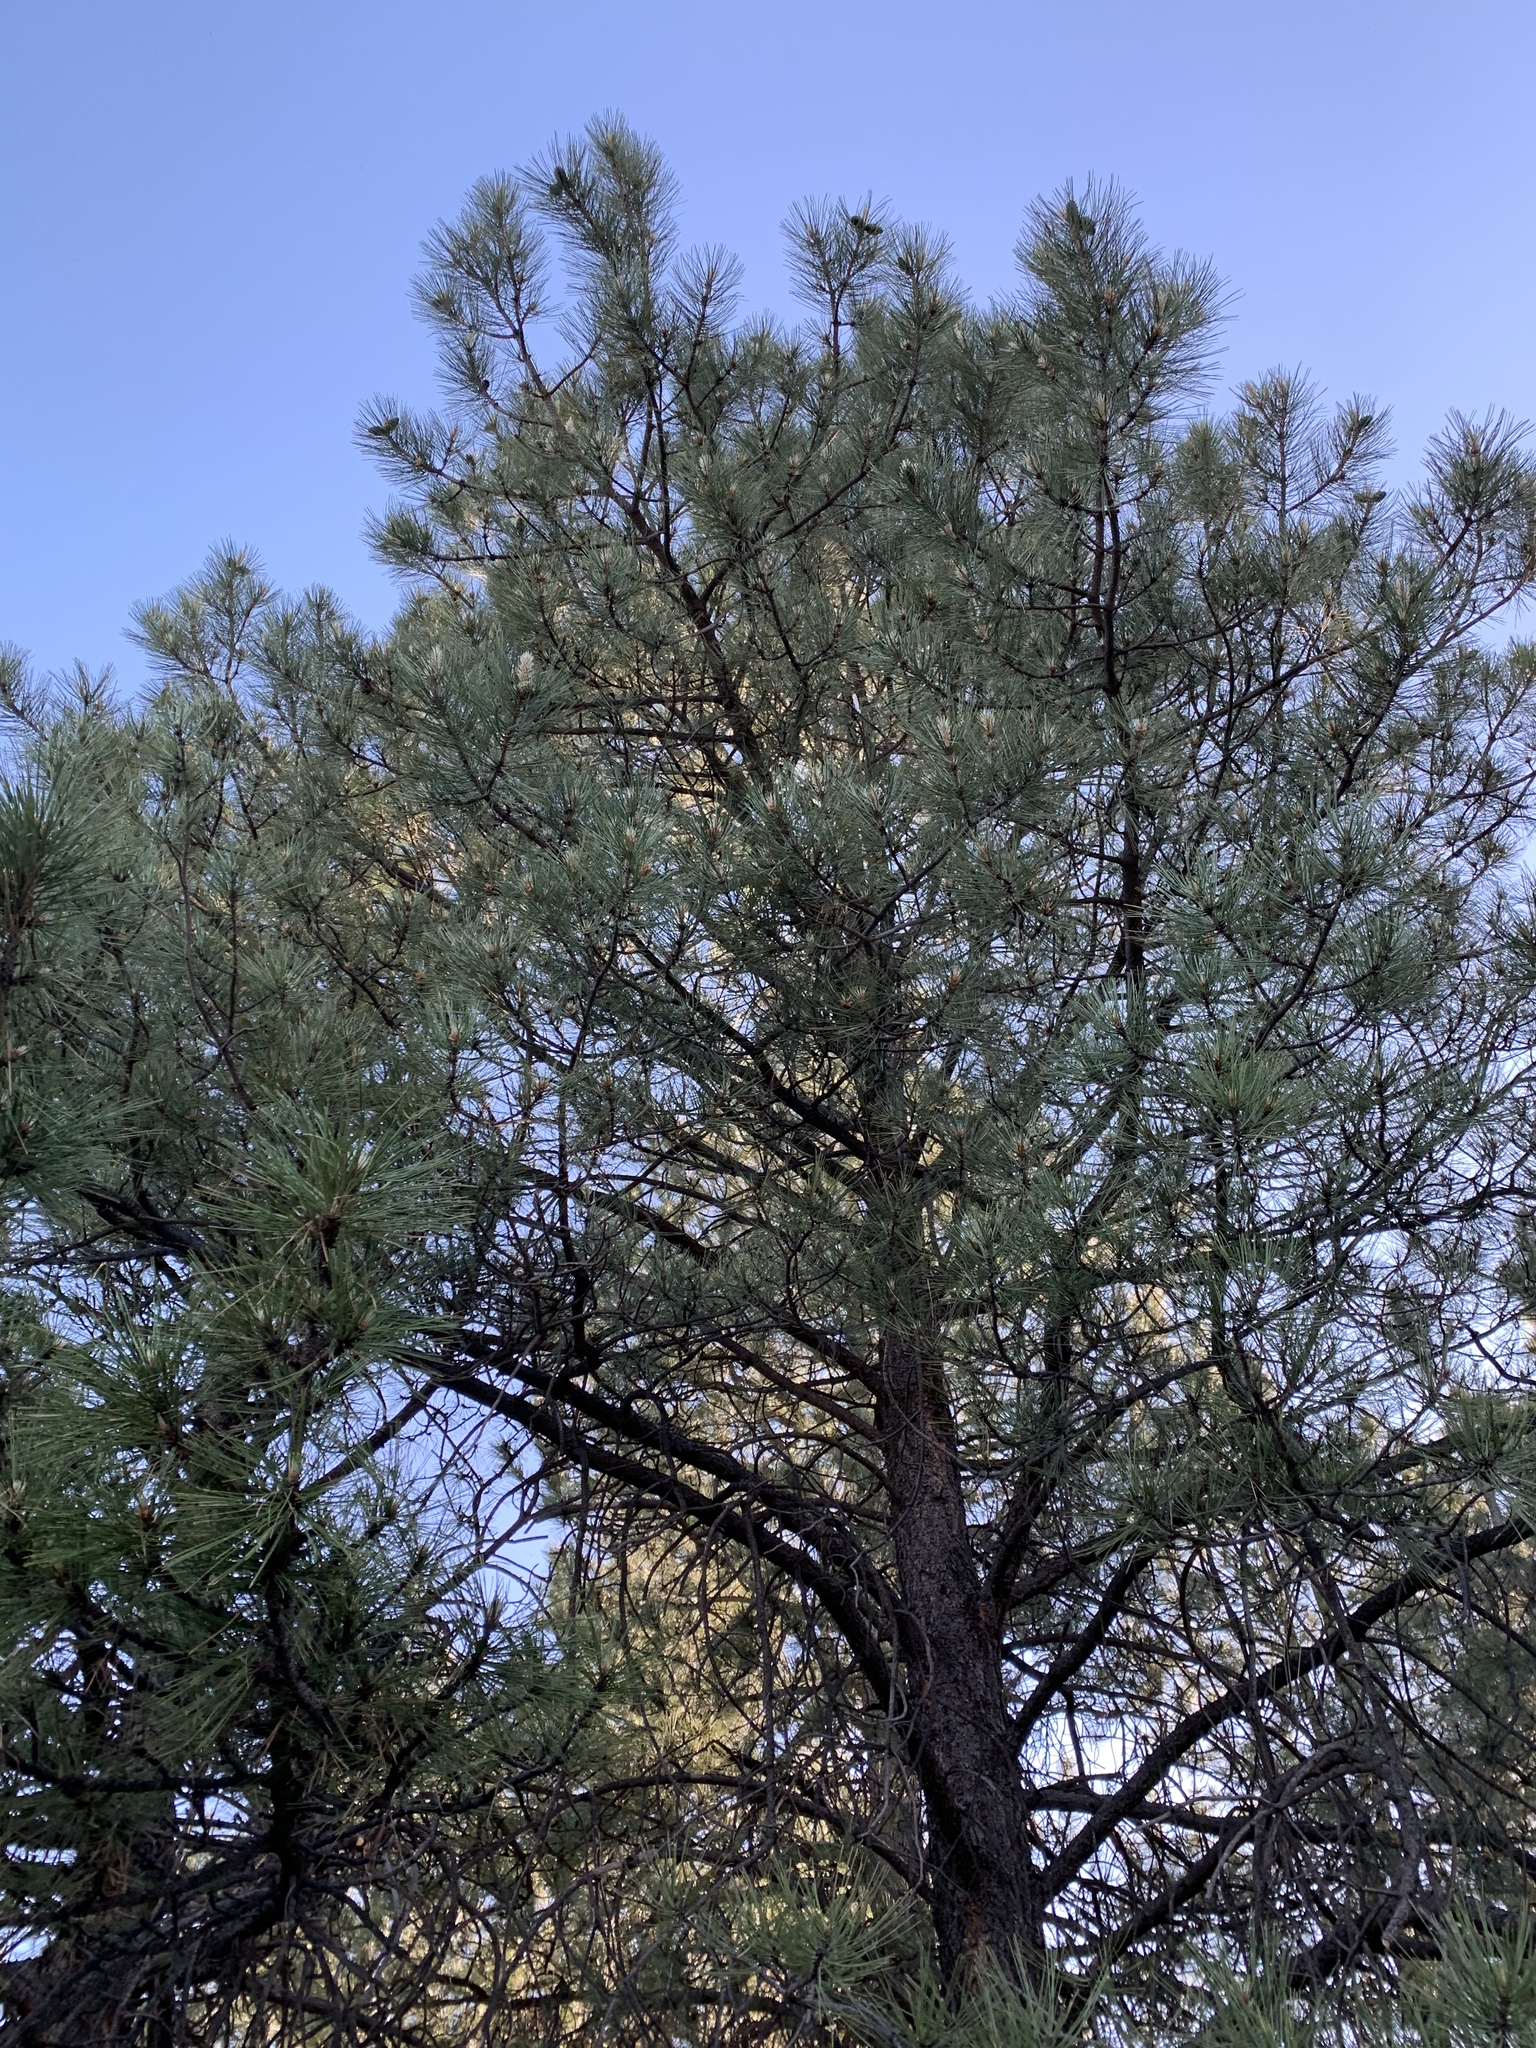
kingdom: Plantae
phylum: Tracheophyta
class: Pinopsida
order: Pinales
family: Pinaceae
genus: Pinus
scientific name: Pinus ponderosa
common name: Western yellow-pine
